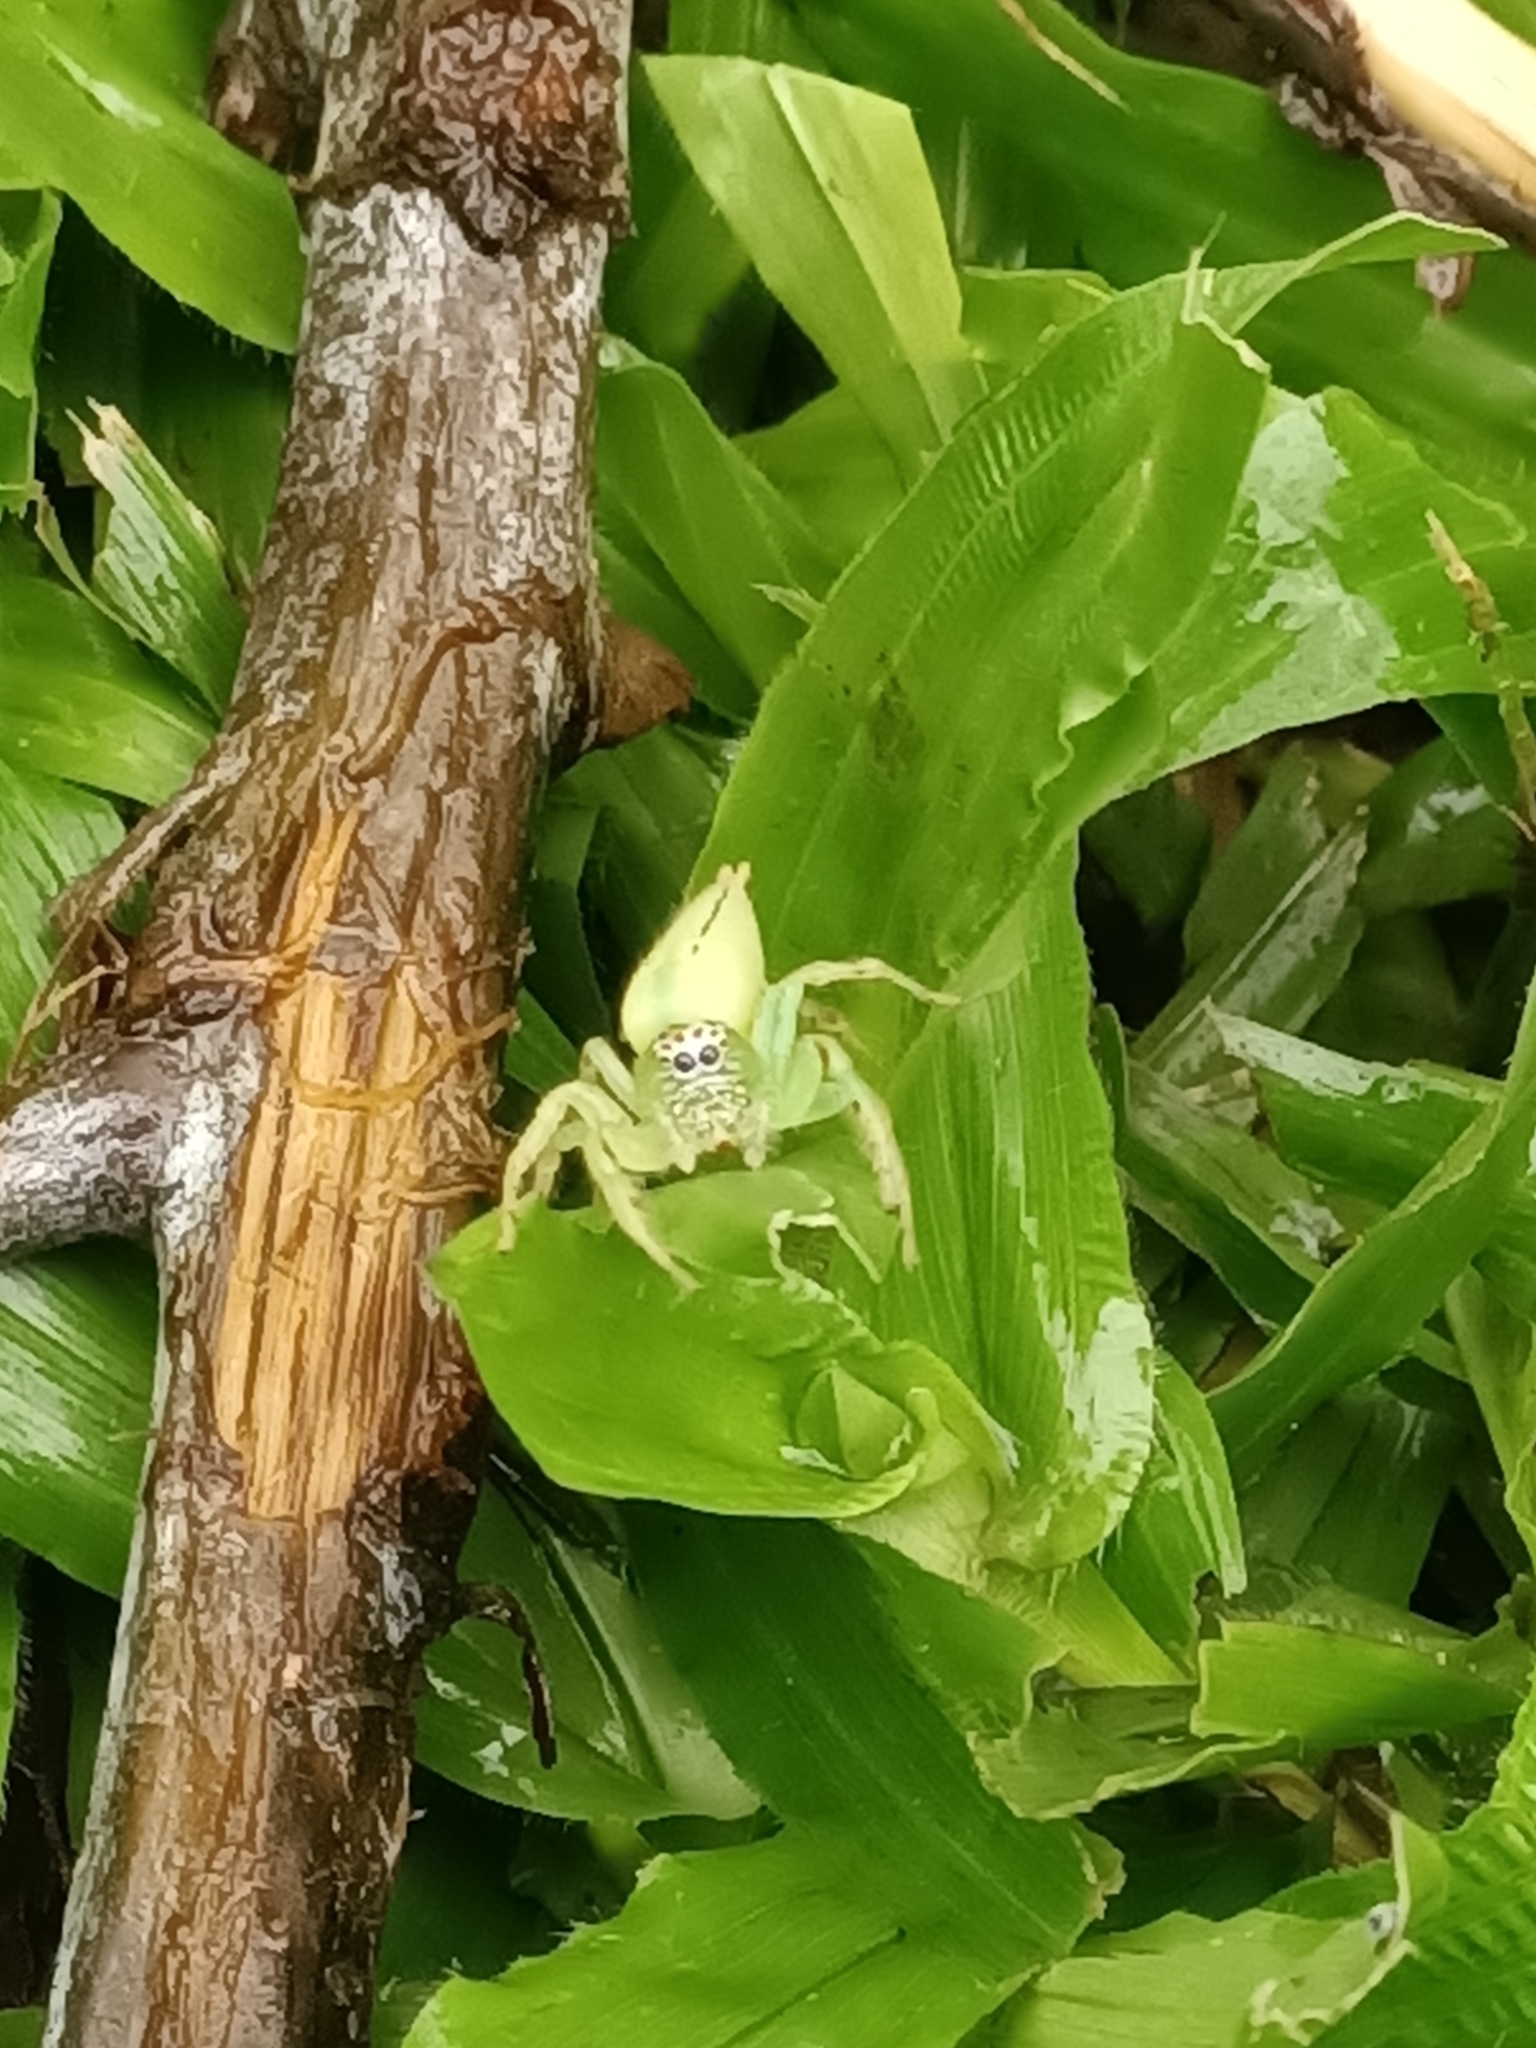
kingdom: Animalia
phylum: Arthropoda
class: Arachnida
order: Araneae
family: Salticidae
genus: Mopsus
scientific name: Mopsus mormon
